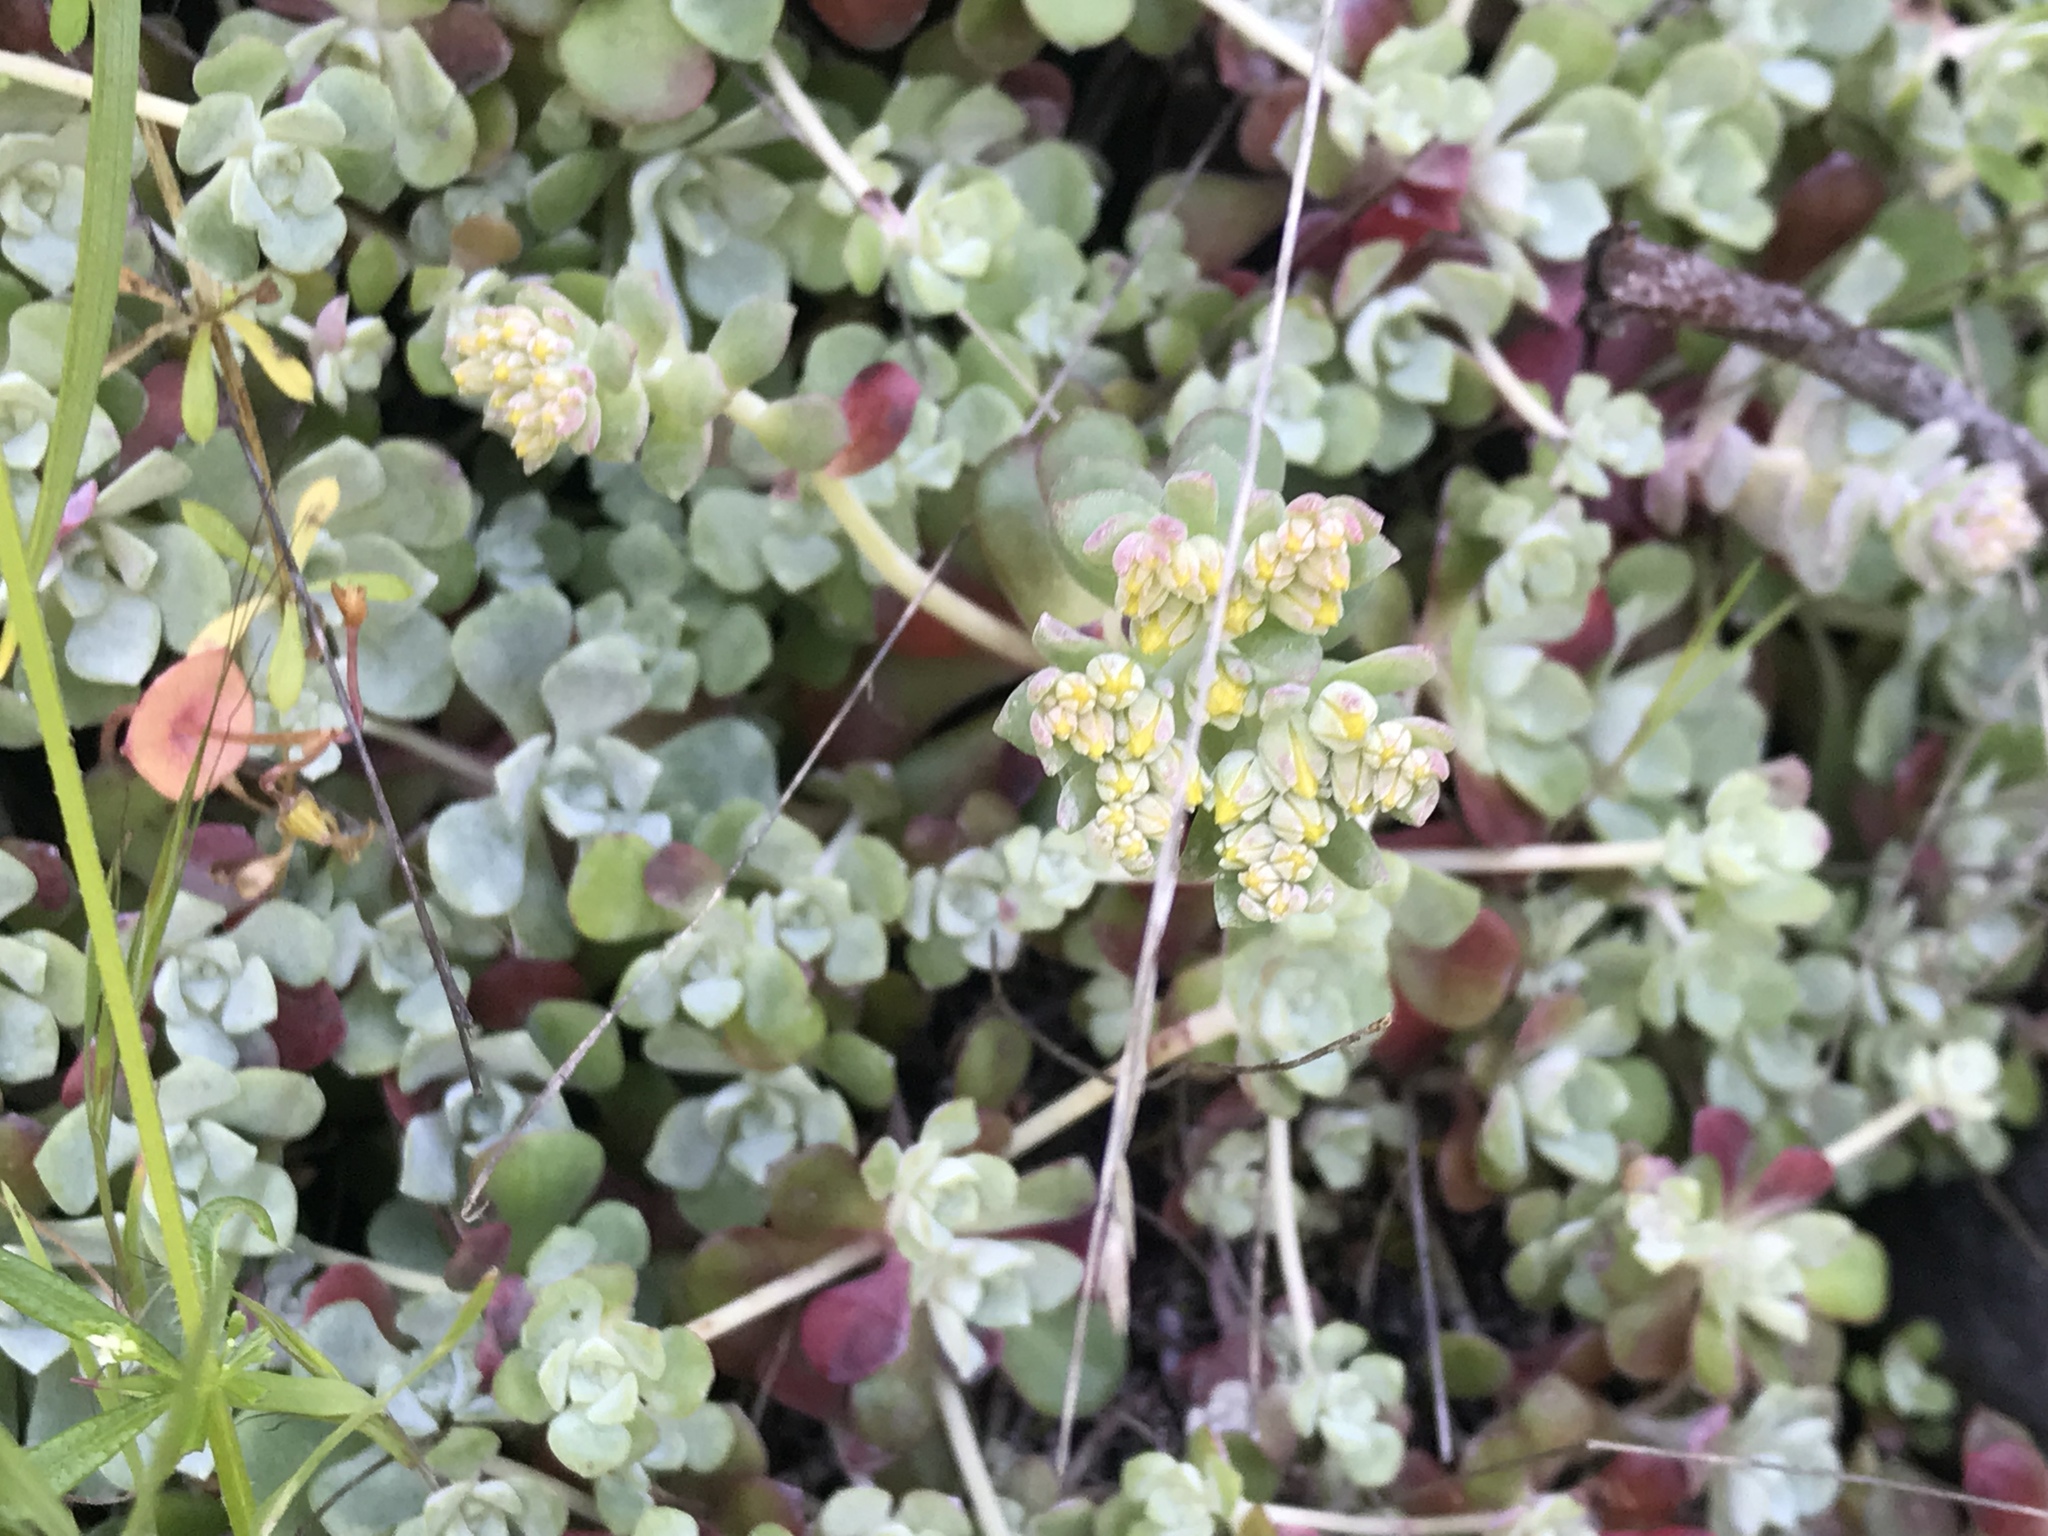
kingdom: Plantae
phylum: Tracheophyta
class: Magnoliopsida
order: Saxifragales
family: Crassulaceae
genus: Sedum
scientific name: Sedum spathulifolium
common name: Colorado stonecrop
